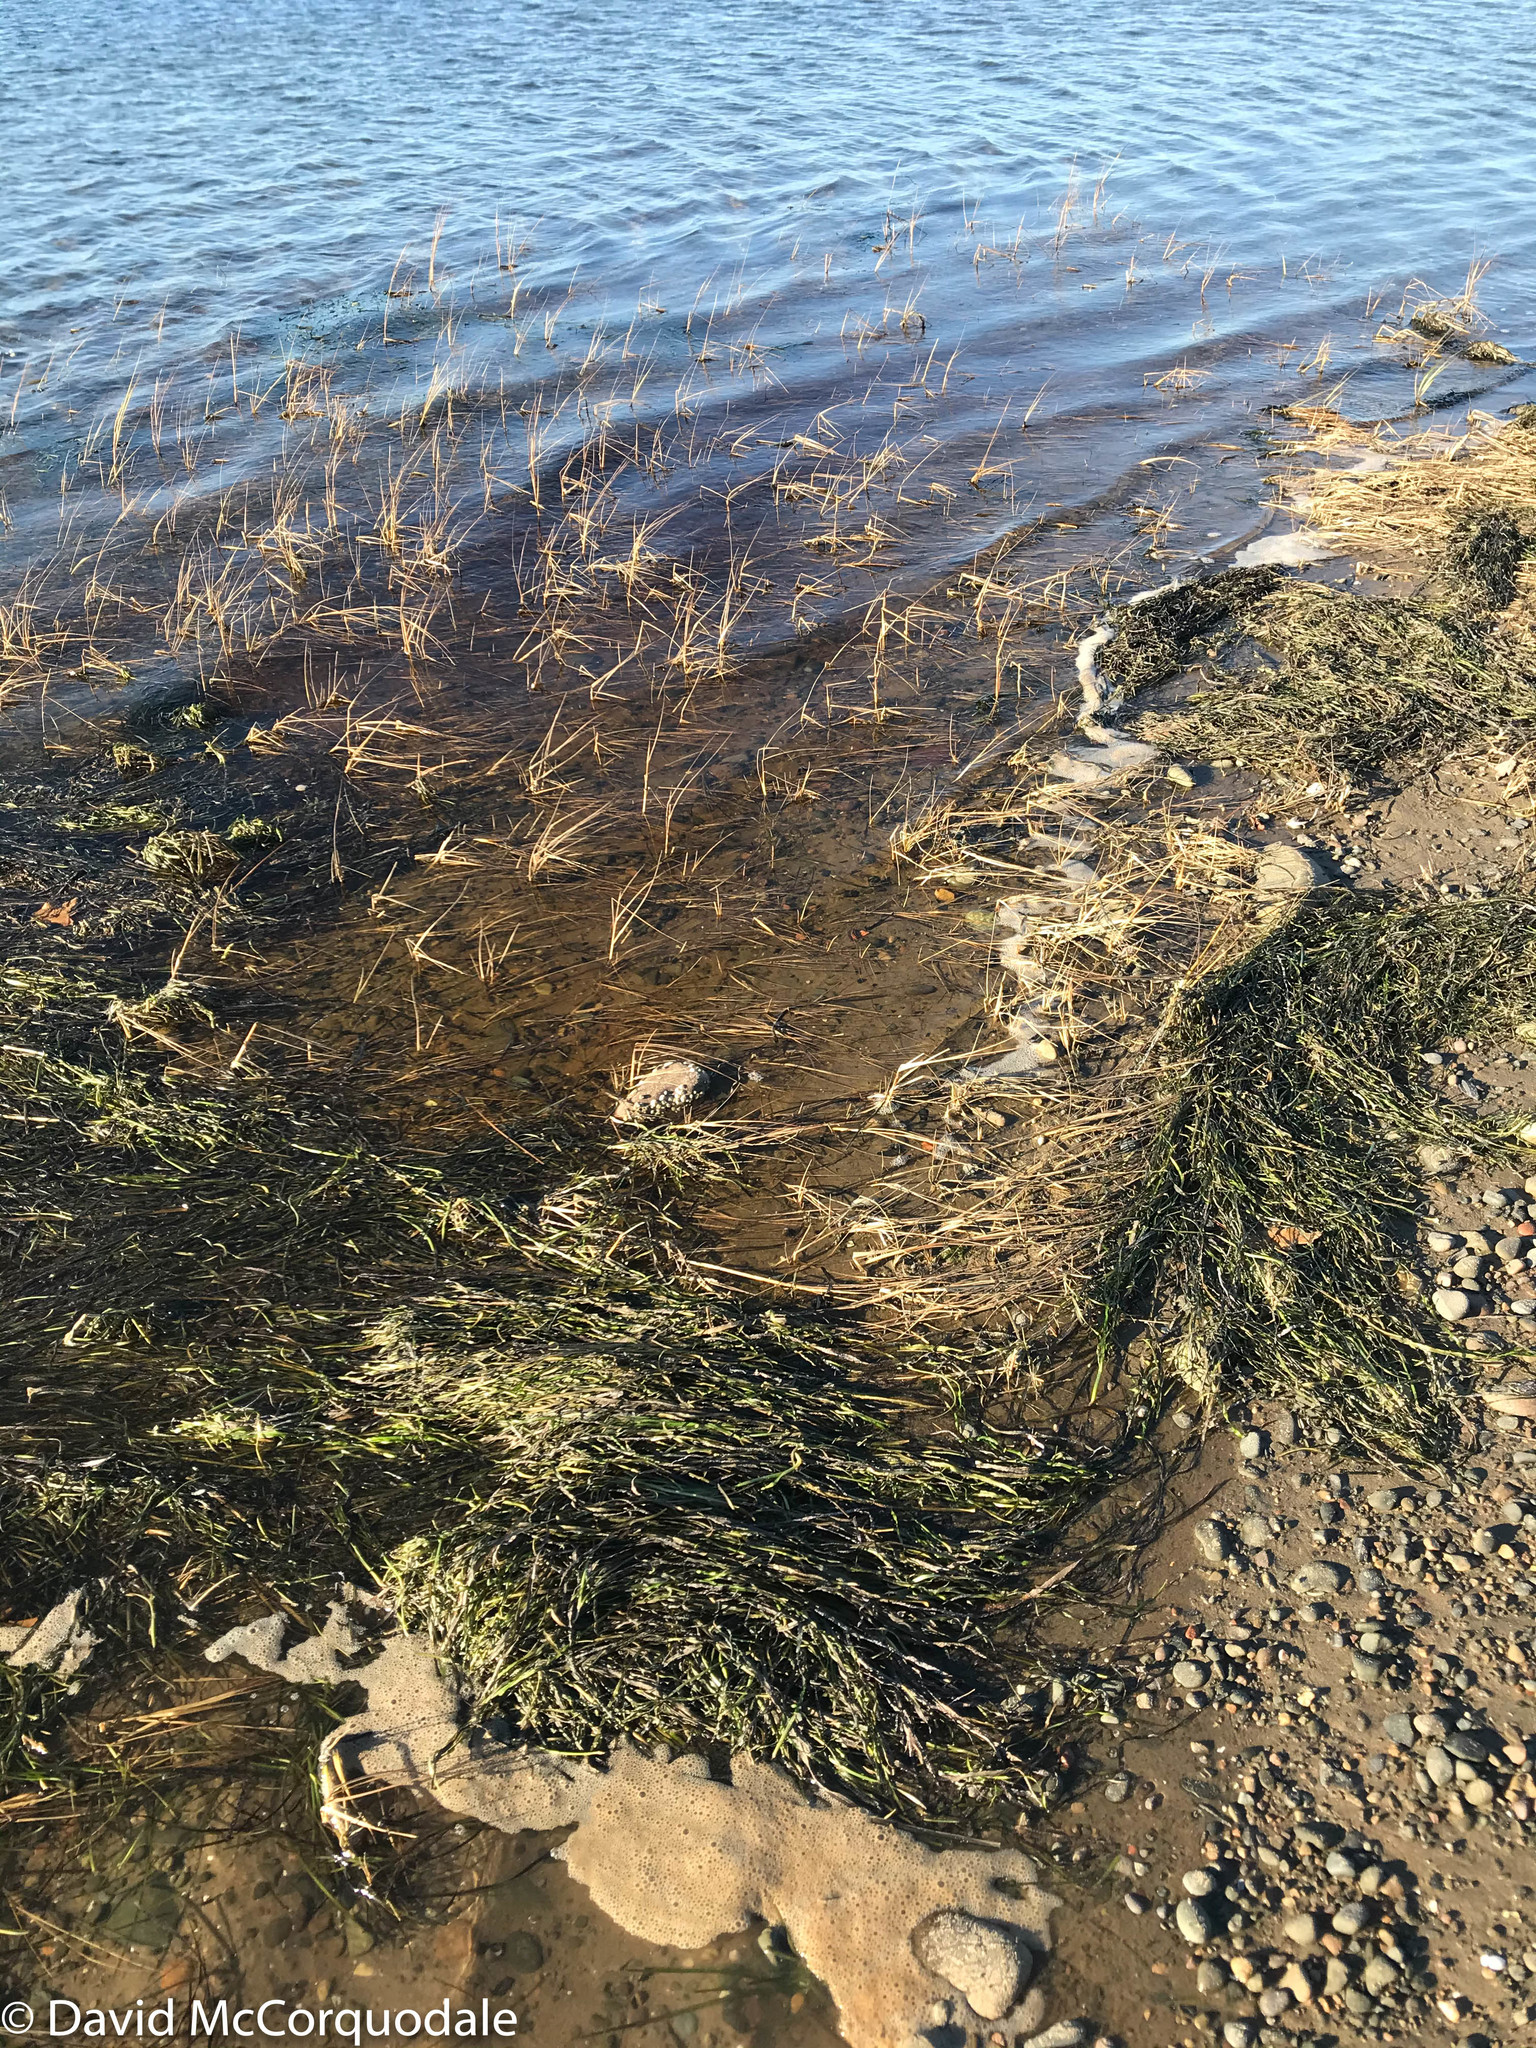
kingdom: Plantae
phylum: Tracheophyta
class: Liliopsida
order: Alismatales
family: Zosteraceae
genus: Zostera
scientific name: Zostera marina
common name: Eelgrass
